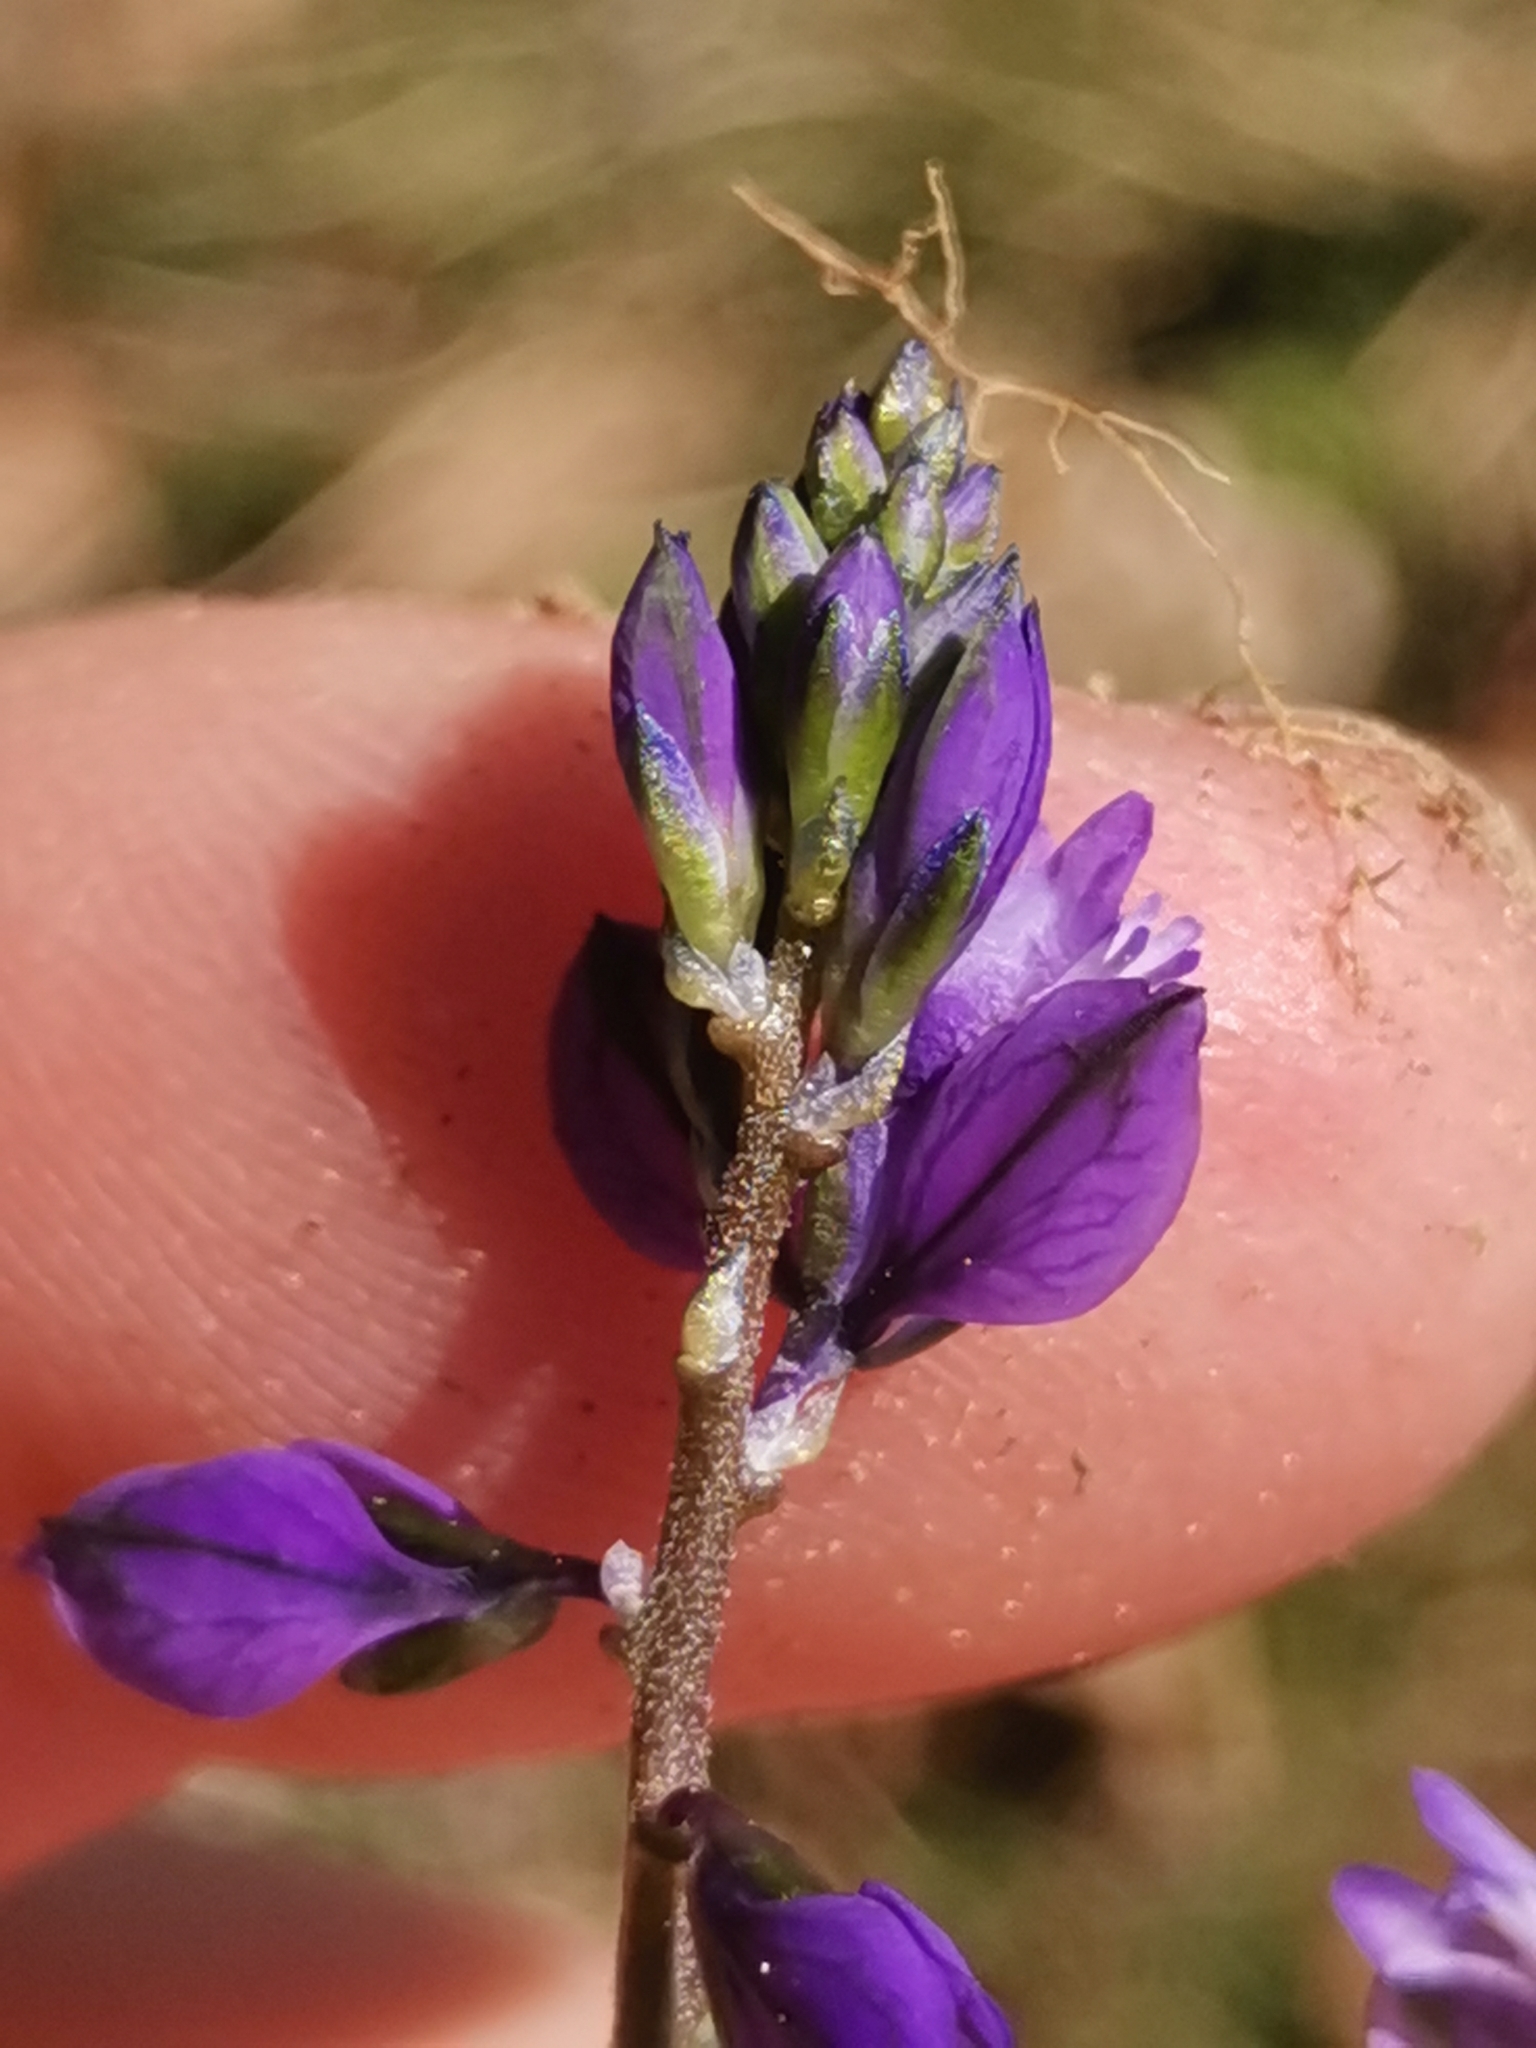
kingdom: Plantae
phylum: Tracheophyta
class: Magnoliopsida
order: Fabales
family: Polygalaceae
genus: Polygala
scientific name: Polygala vulgaris
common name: Common milkwort
